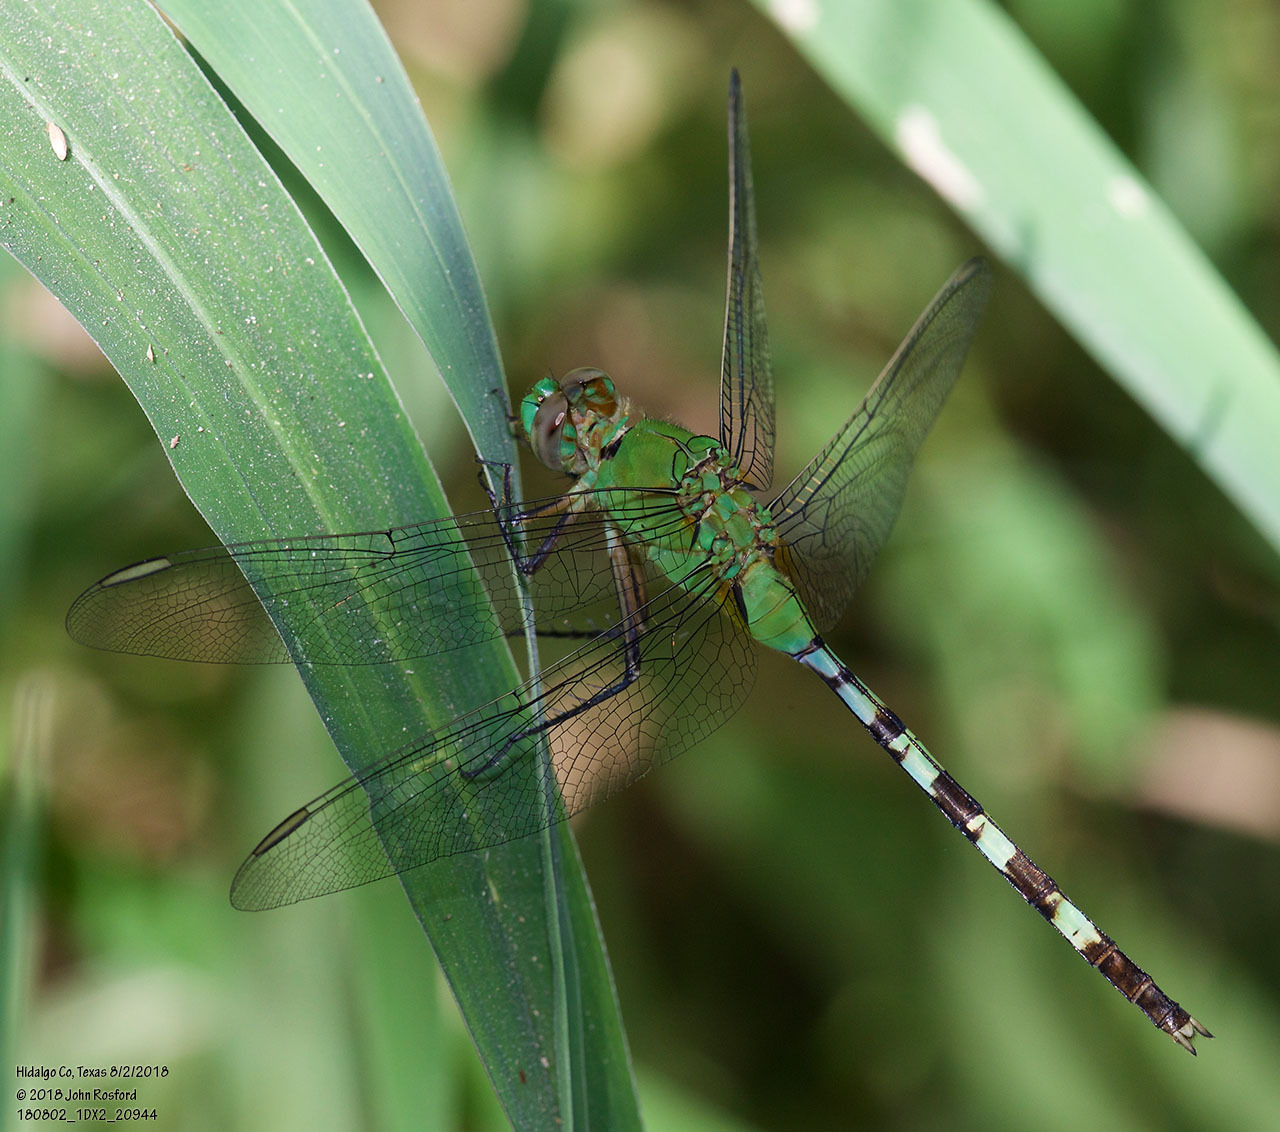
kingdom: Animalia
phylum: Arthropoda
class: Insecta
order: Odonata
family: Libellulidae
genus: Erythemis
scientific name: Erythemis vesiculosa
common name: Great pondhawk
